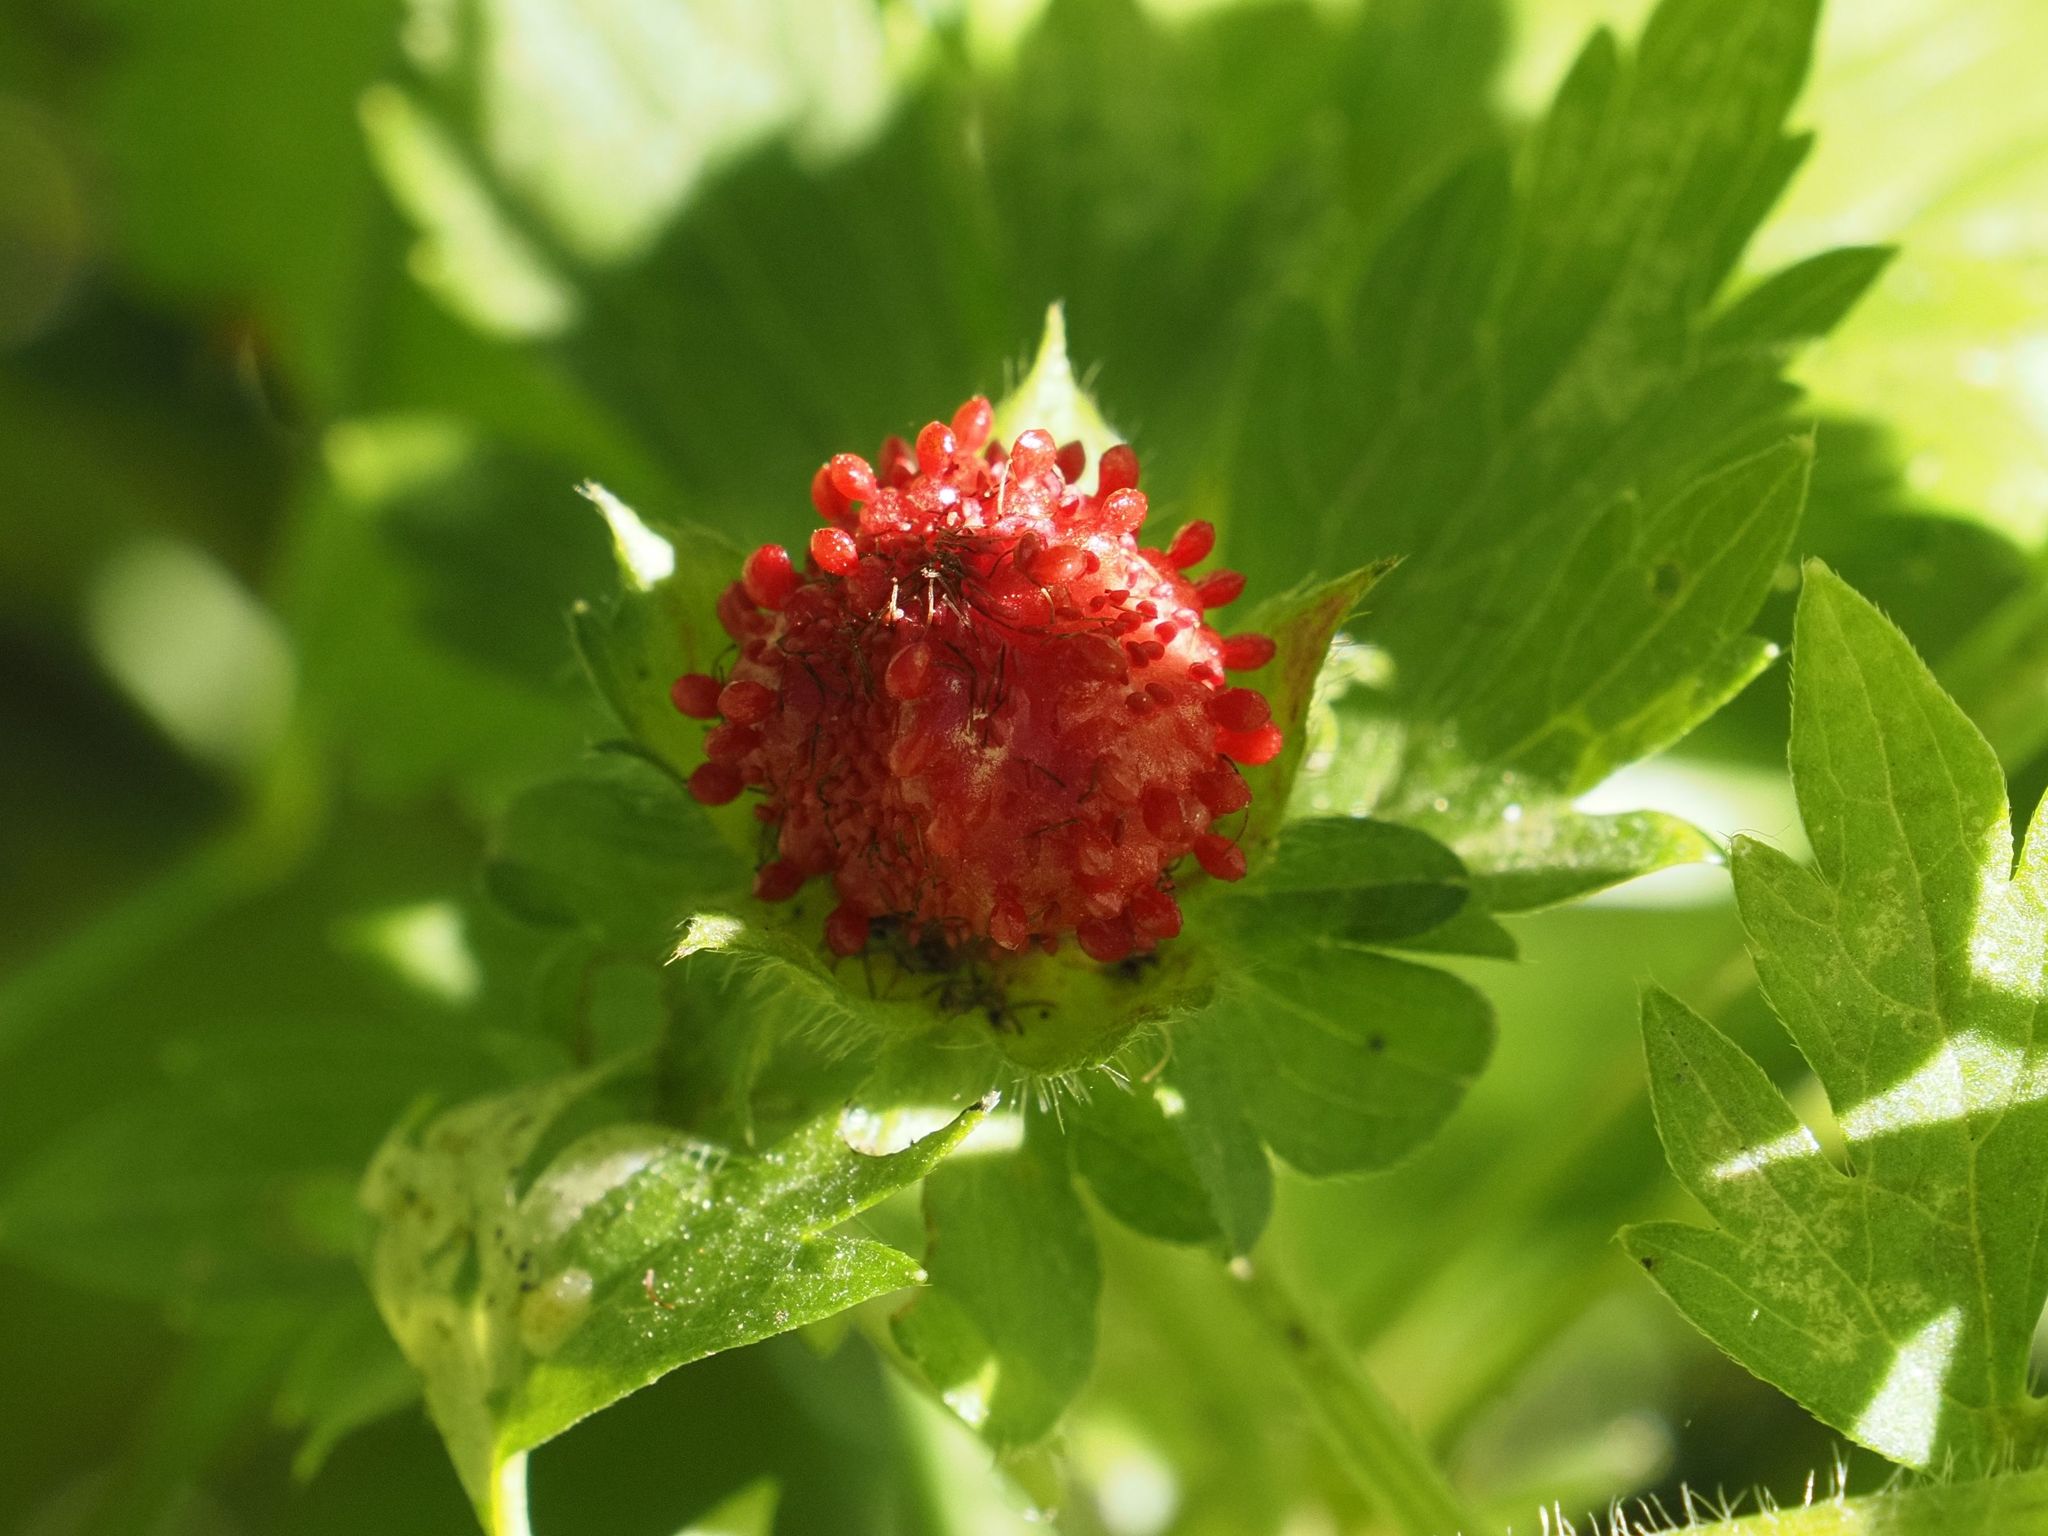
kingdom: Plantae
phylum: Tracheophyta
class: Magnoliopsida
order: Rosales
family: Rosaceae
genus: Potentilla
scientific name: Potentilla indica
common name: Yellow-flowered strawberry
